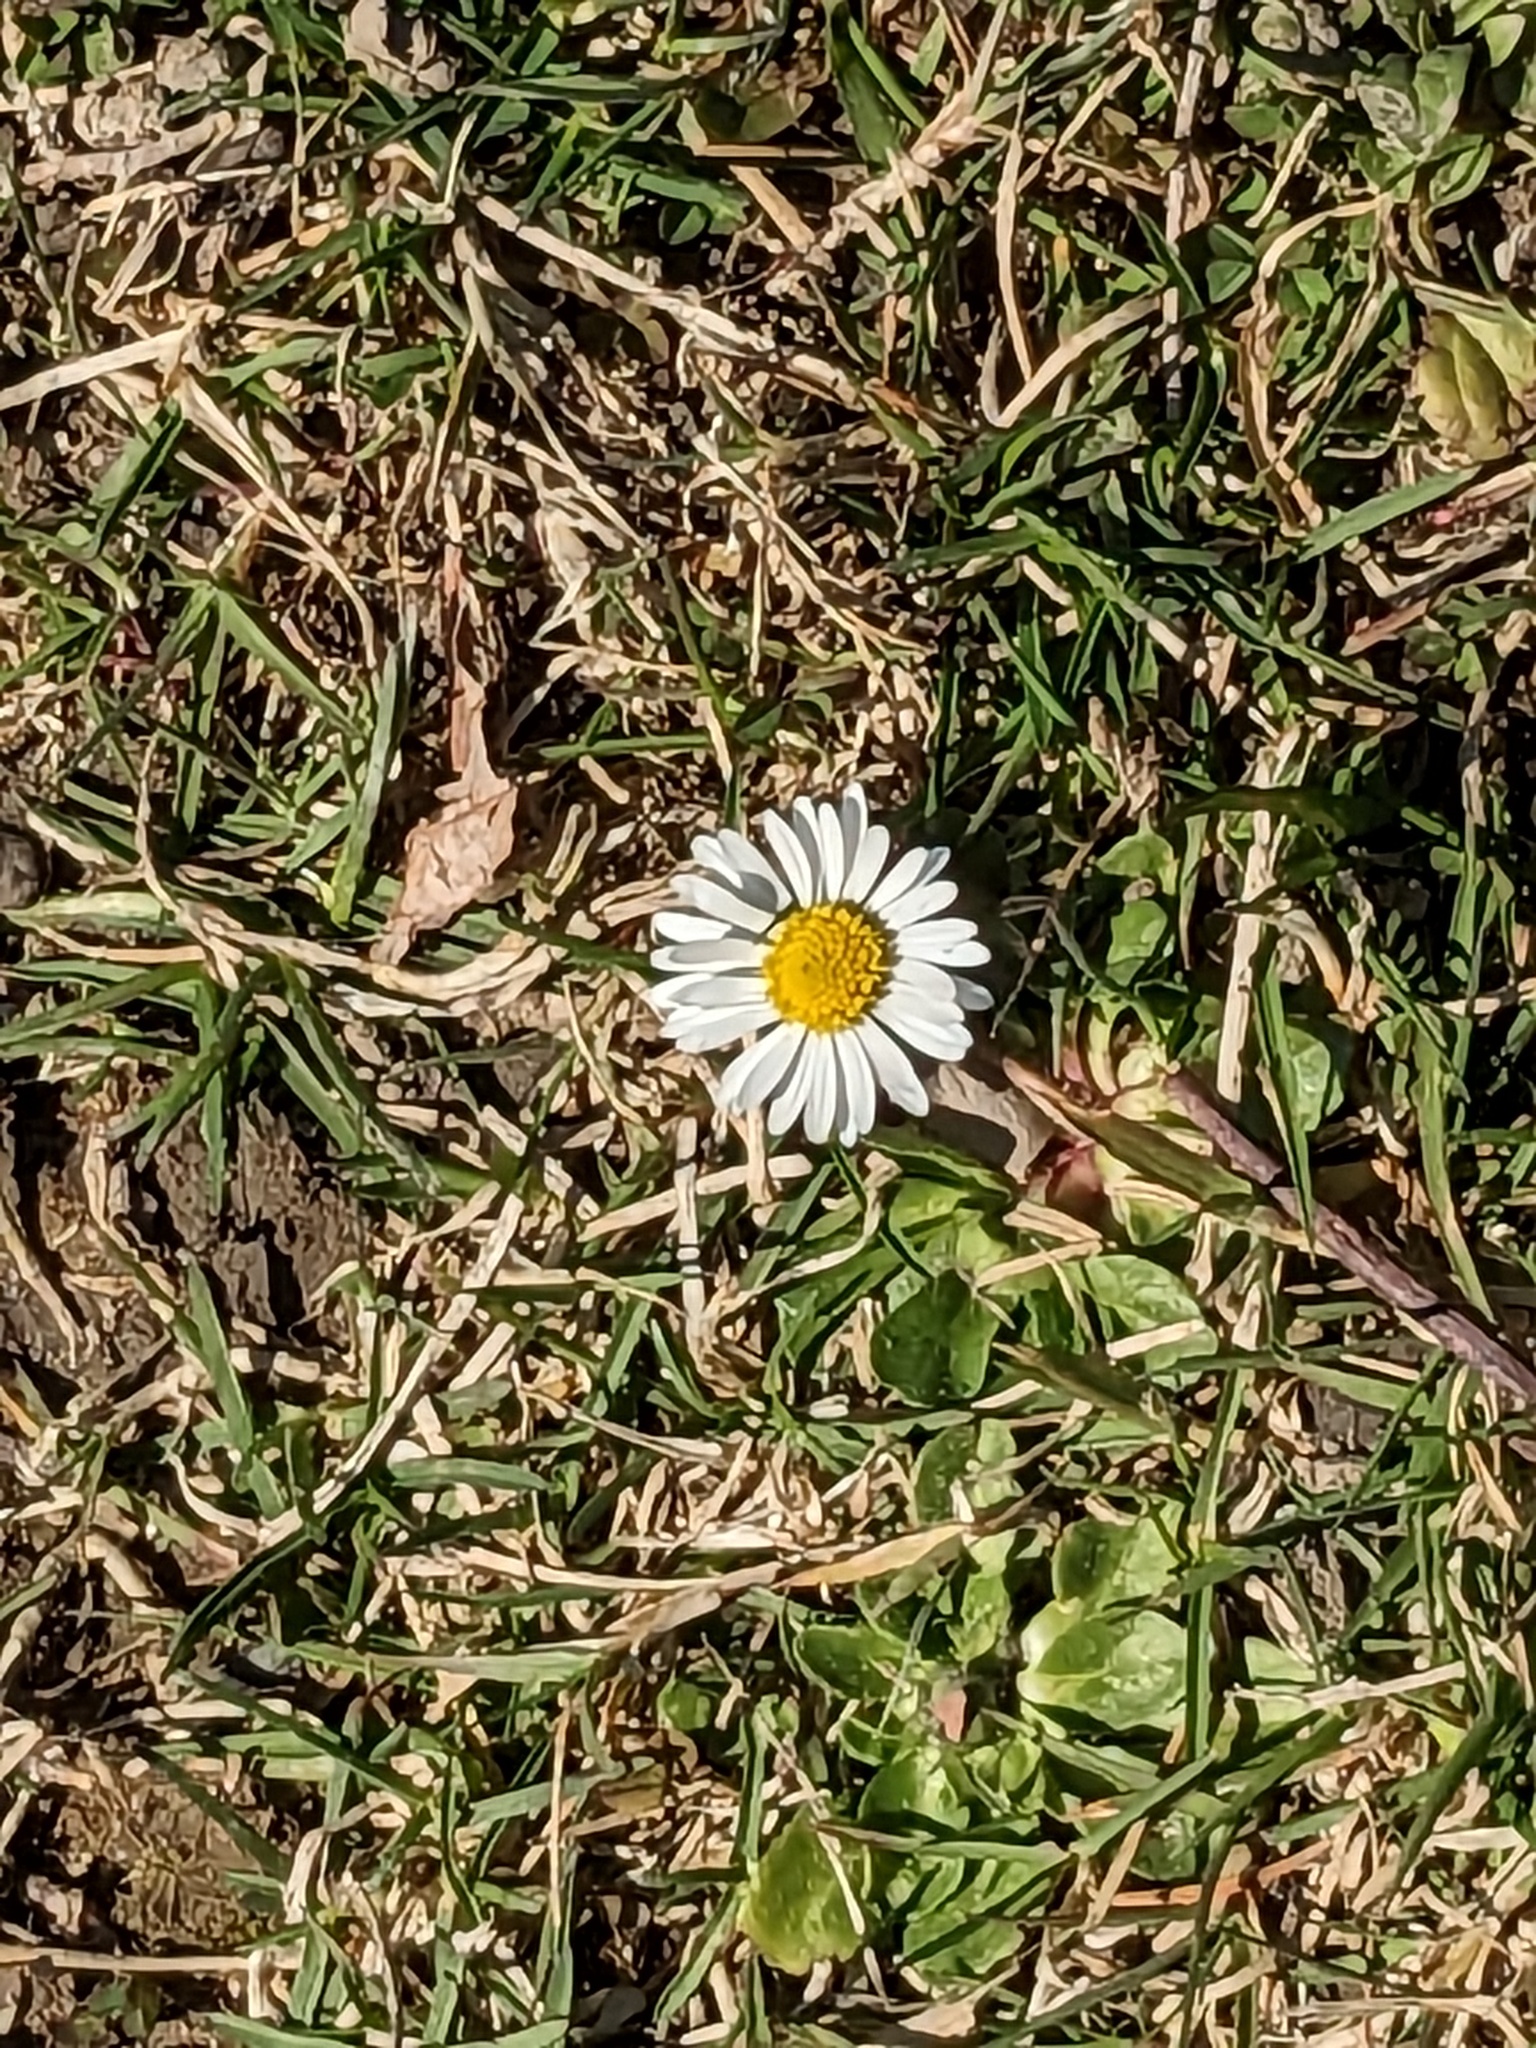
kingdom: Plantae
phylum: Tracheophyta
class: Magnoliopsida
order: Asterales
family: Asteraceae
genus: Bellis
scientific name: Bellis perennis
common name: Lawndaisy
